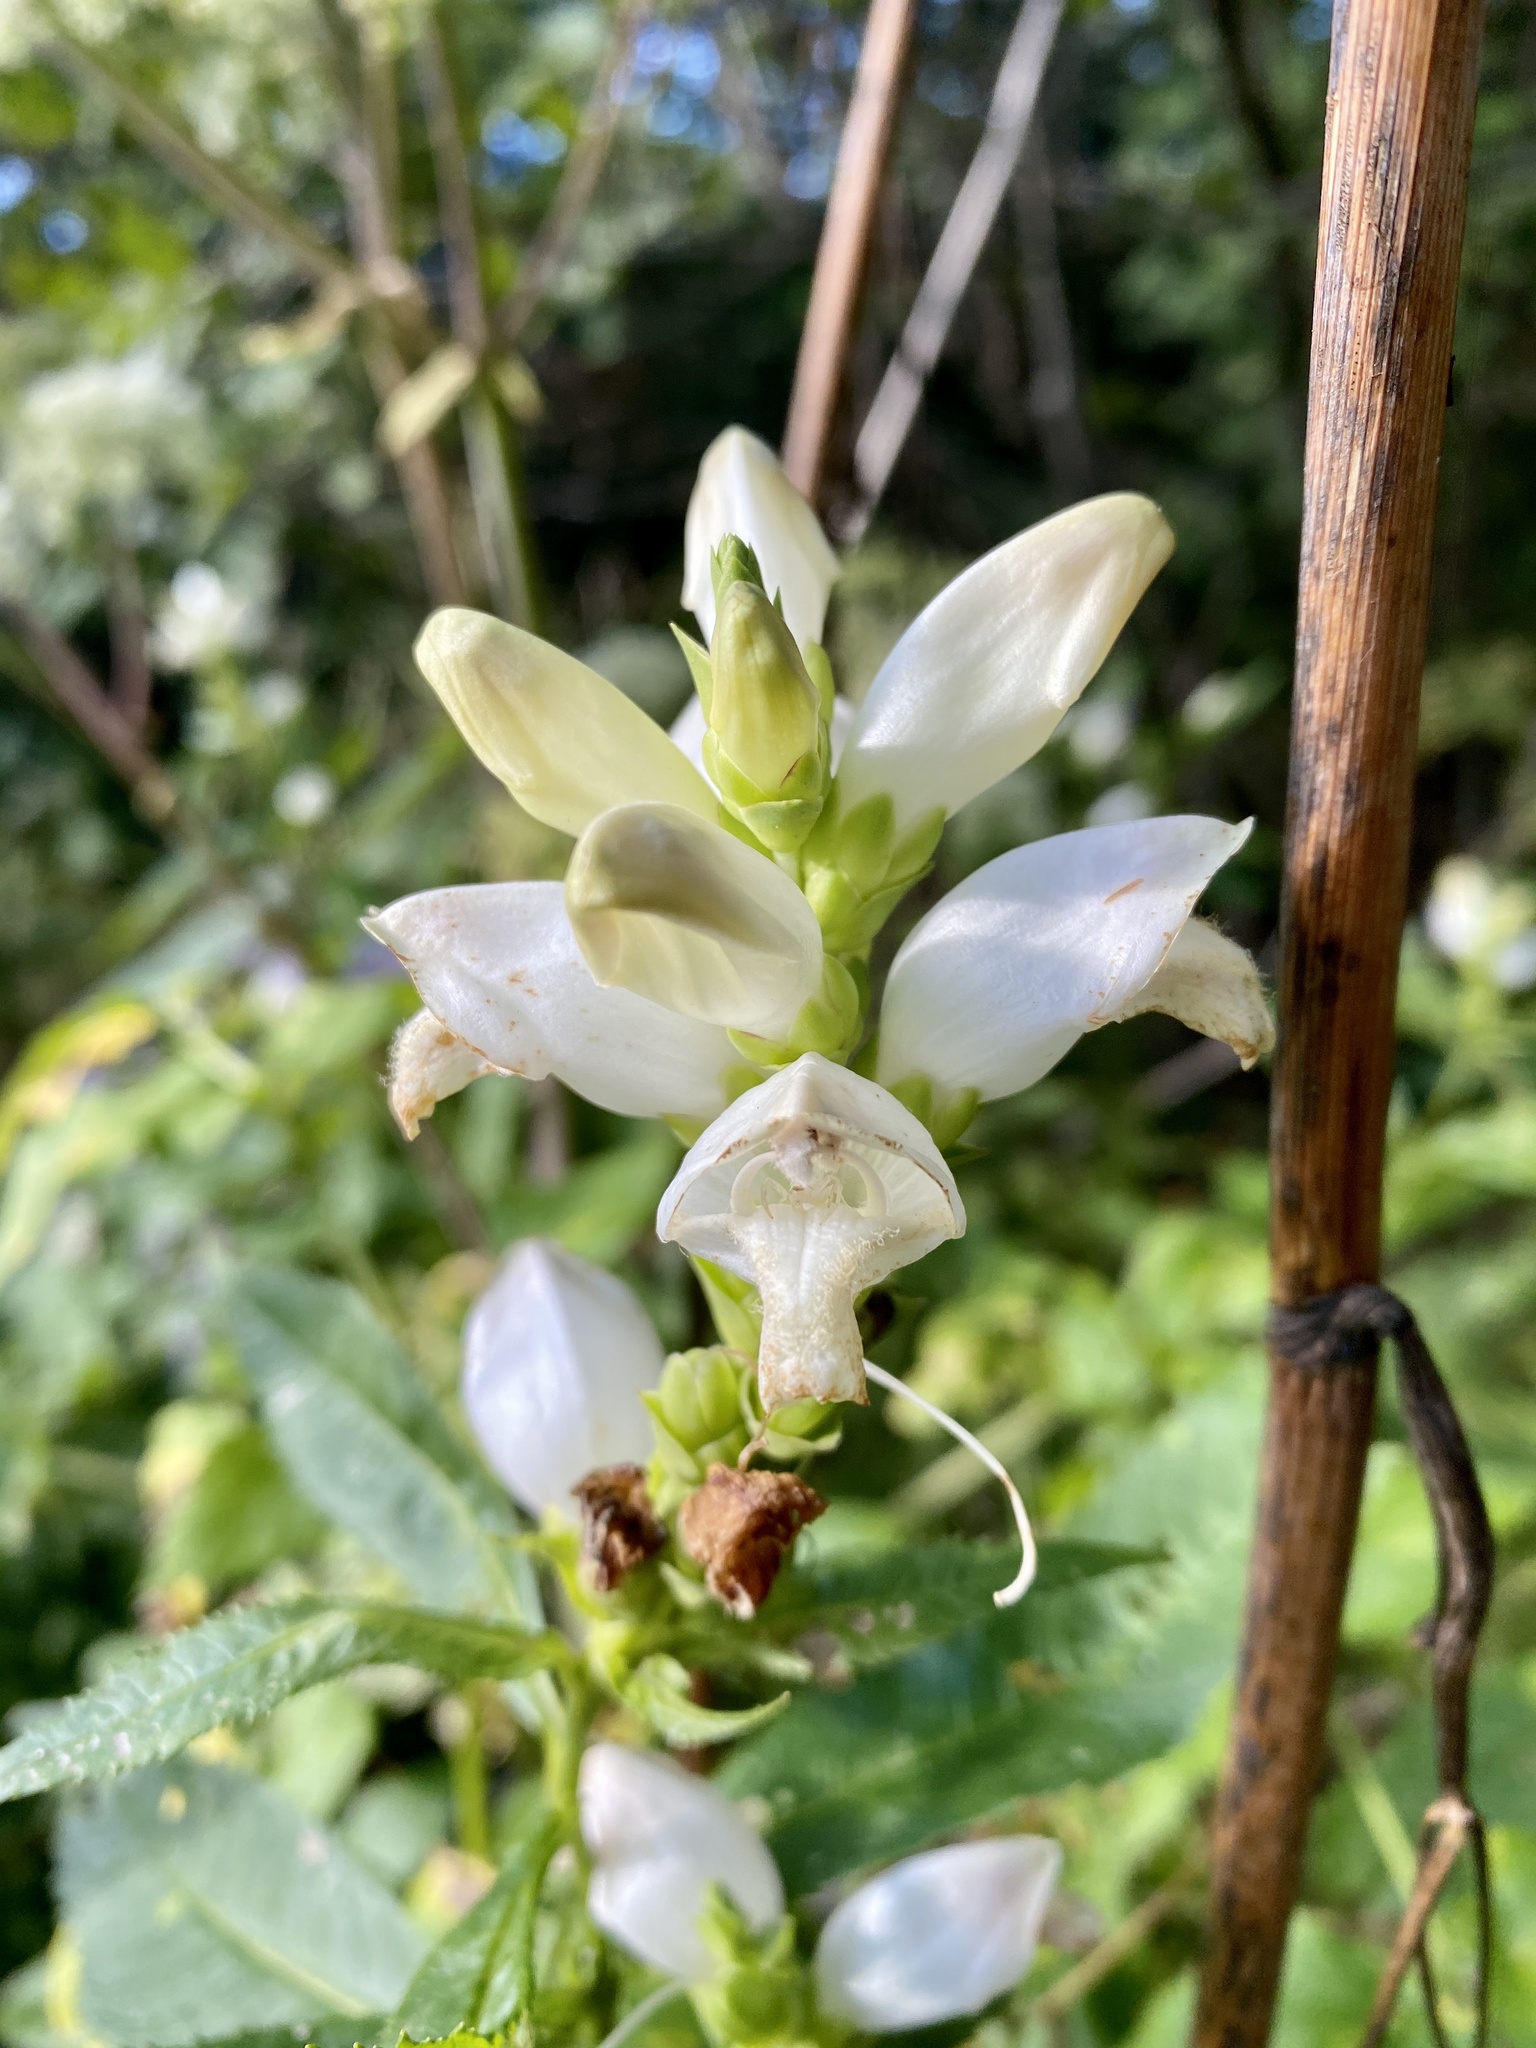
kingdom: Plantae
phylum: Tracheophyta
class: Magnoliopsida
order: Lamiales
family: Plantaginaceae
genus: Chelone
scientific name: Chelone glabra
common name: Snakehead
